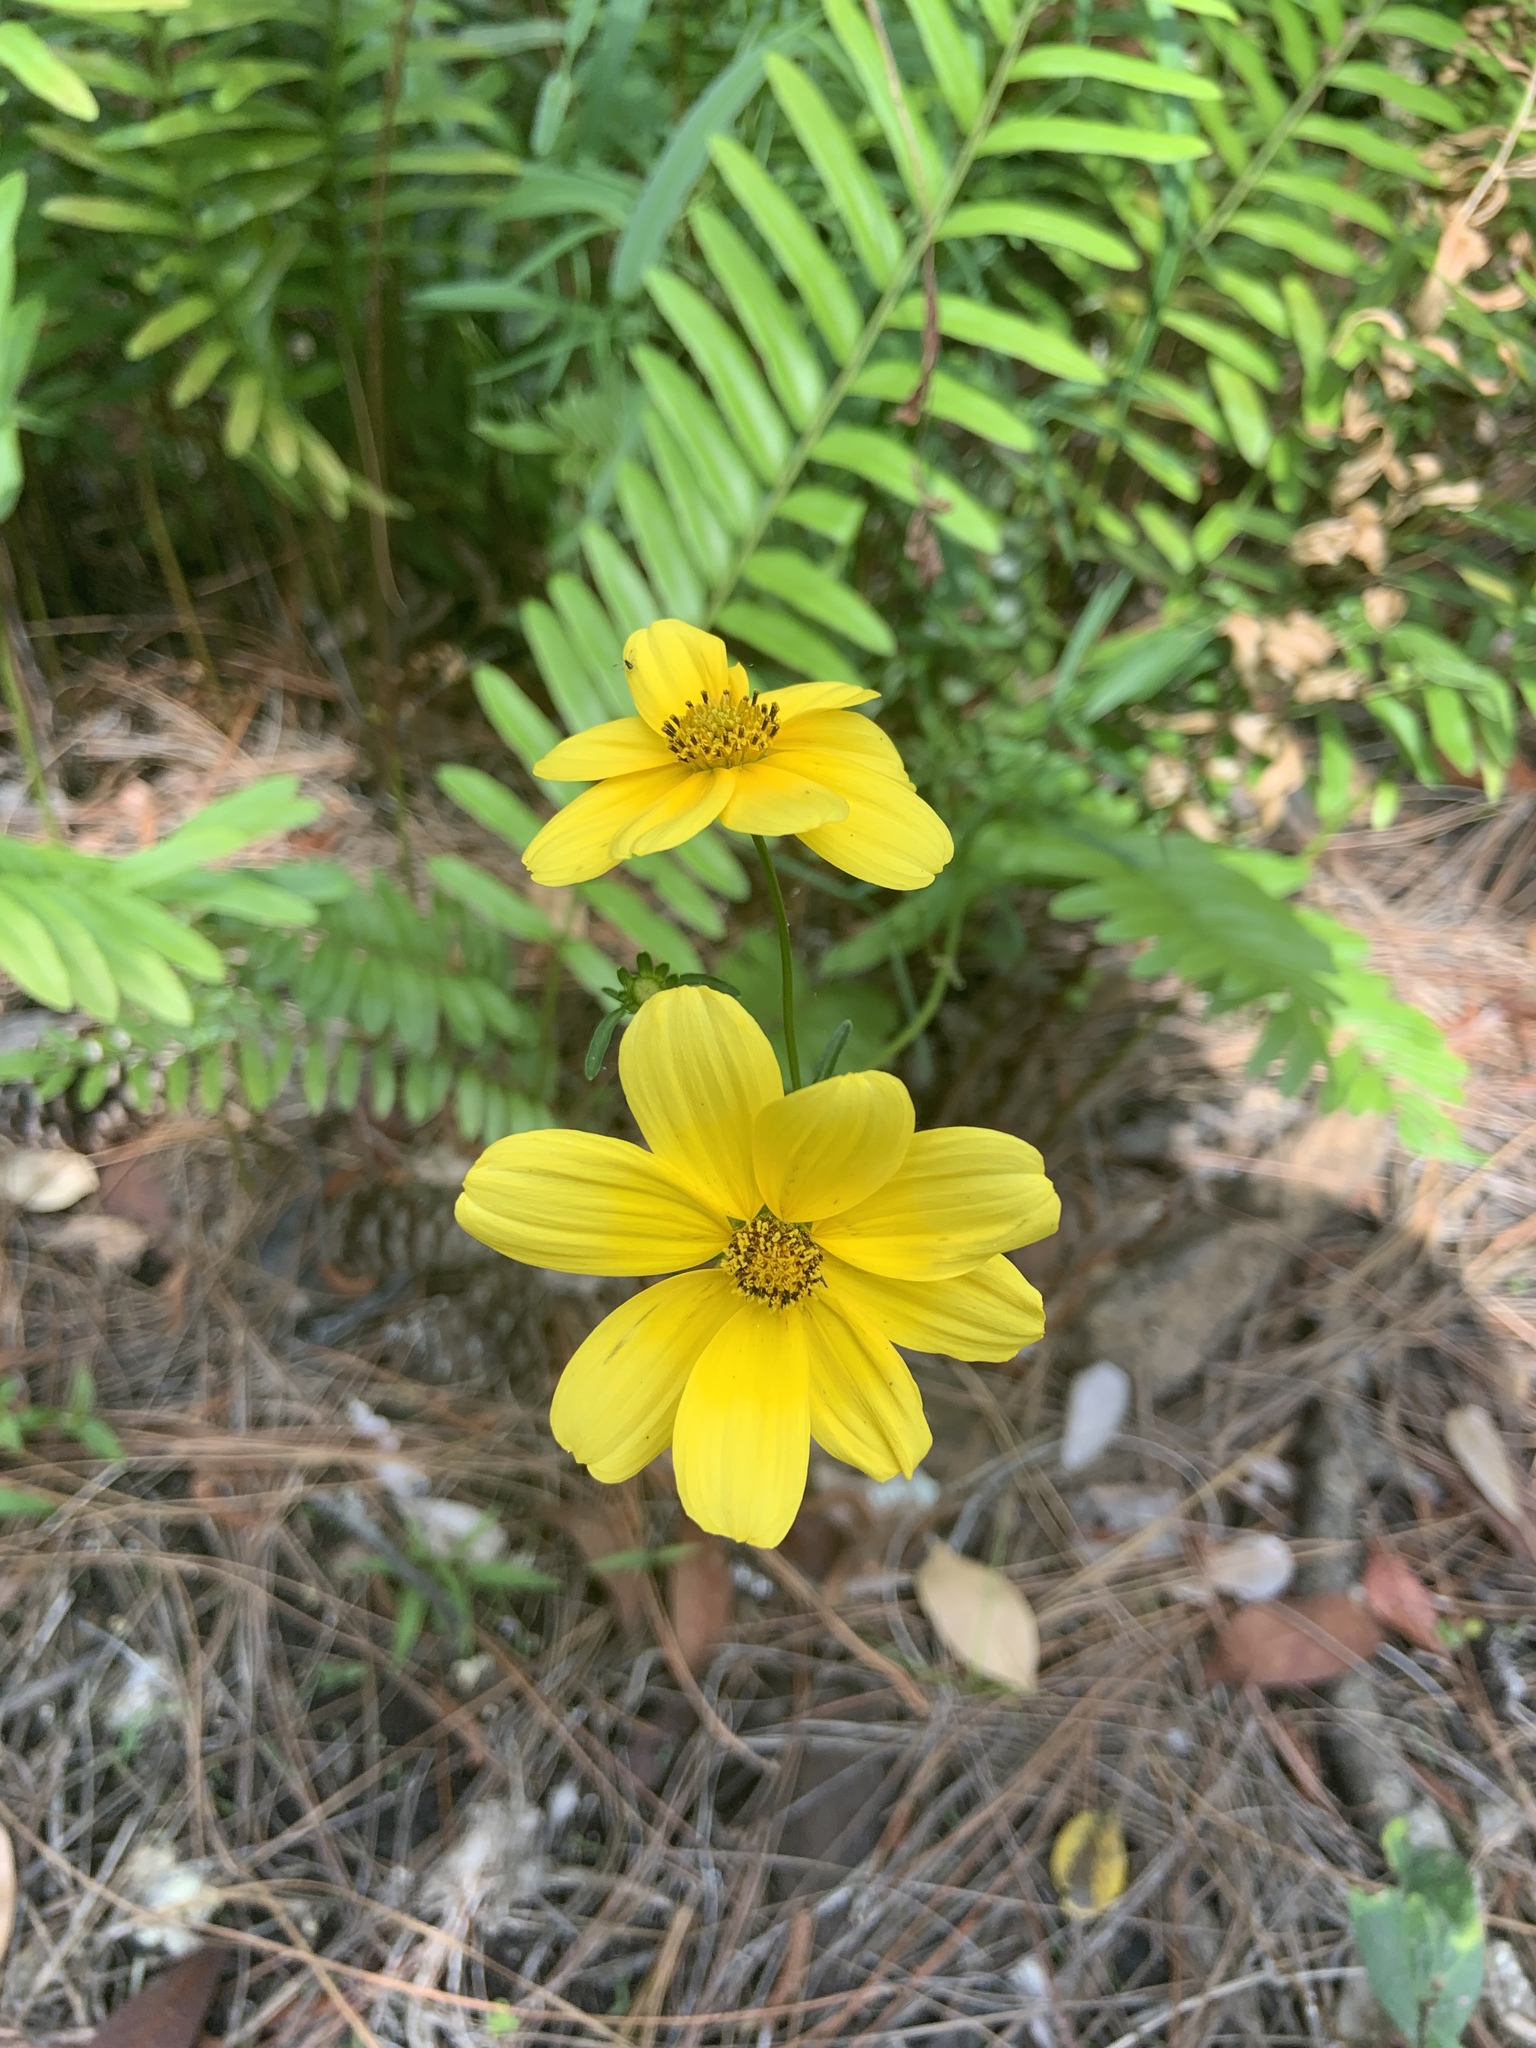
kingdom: Plantae
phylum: Tracheophyta
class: Magnoliopsida
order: Asterales
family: Asteraceae
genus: Bidens
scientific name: Bidens laevis
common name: Larger bur-marigold
